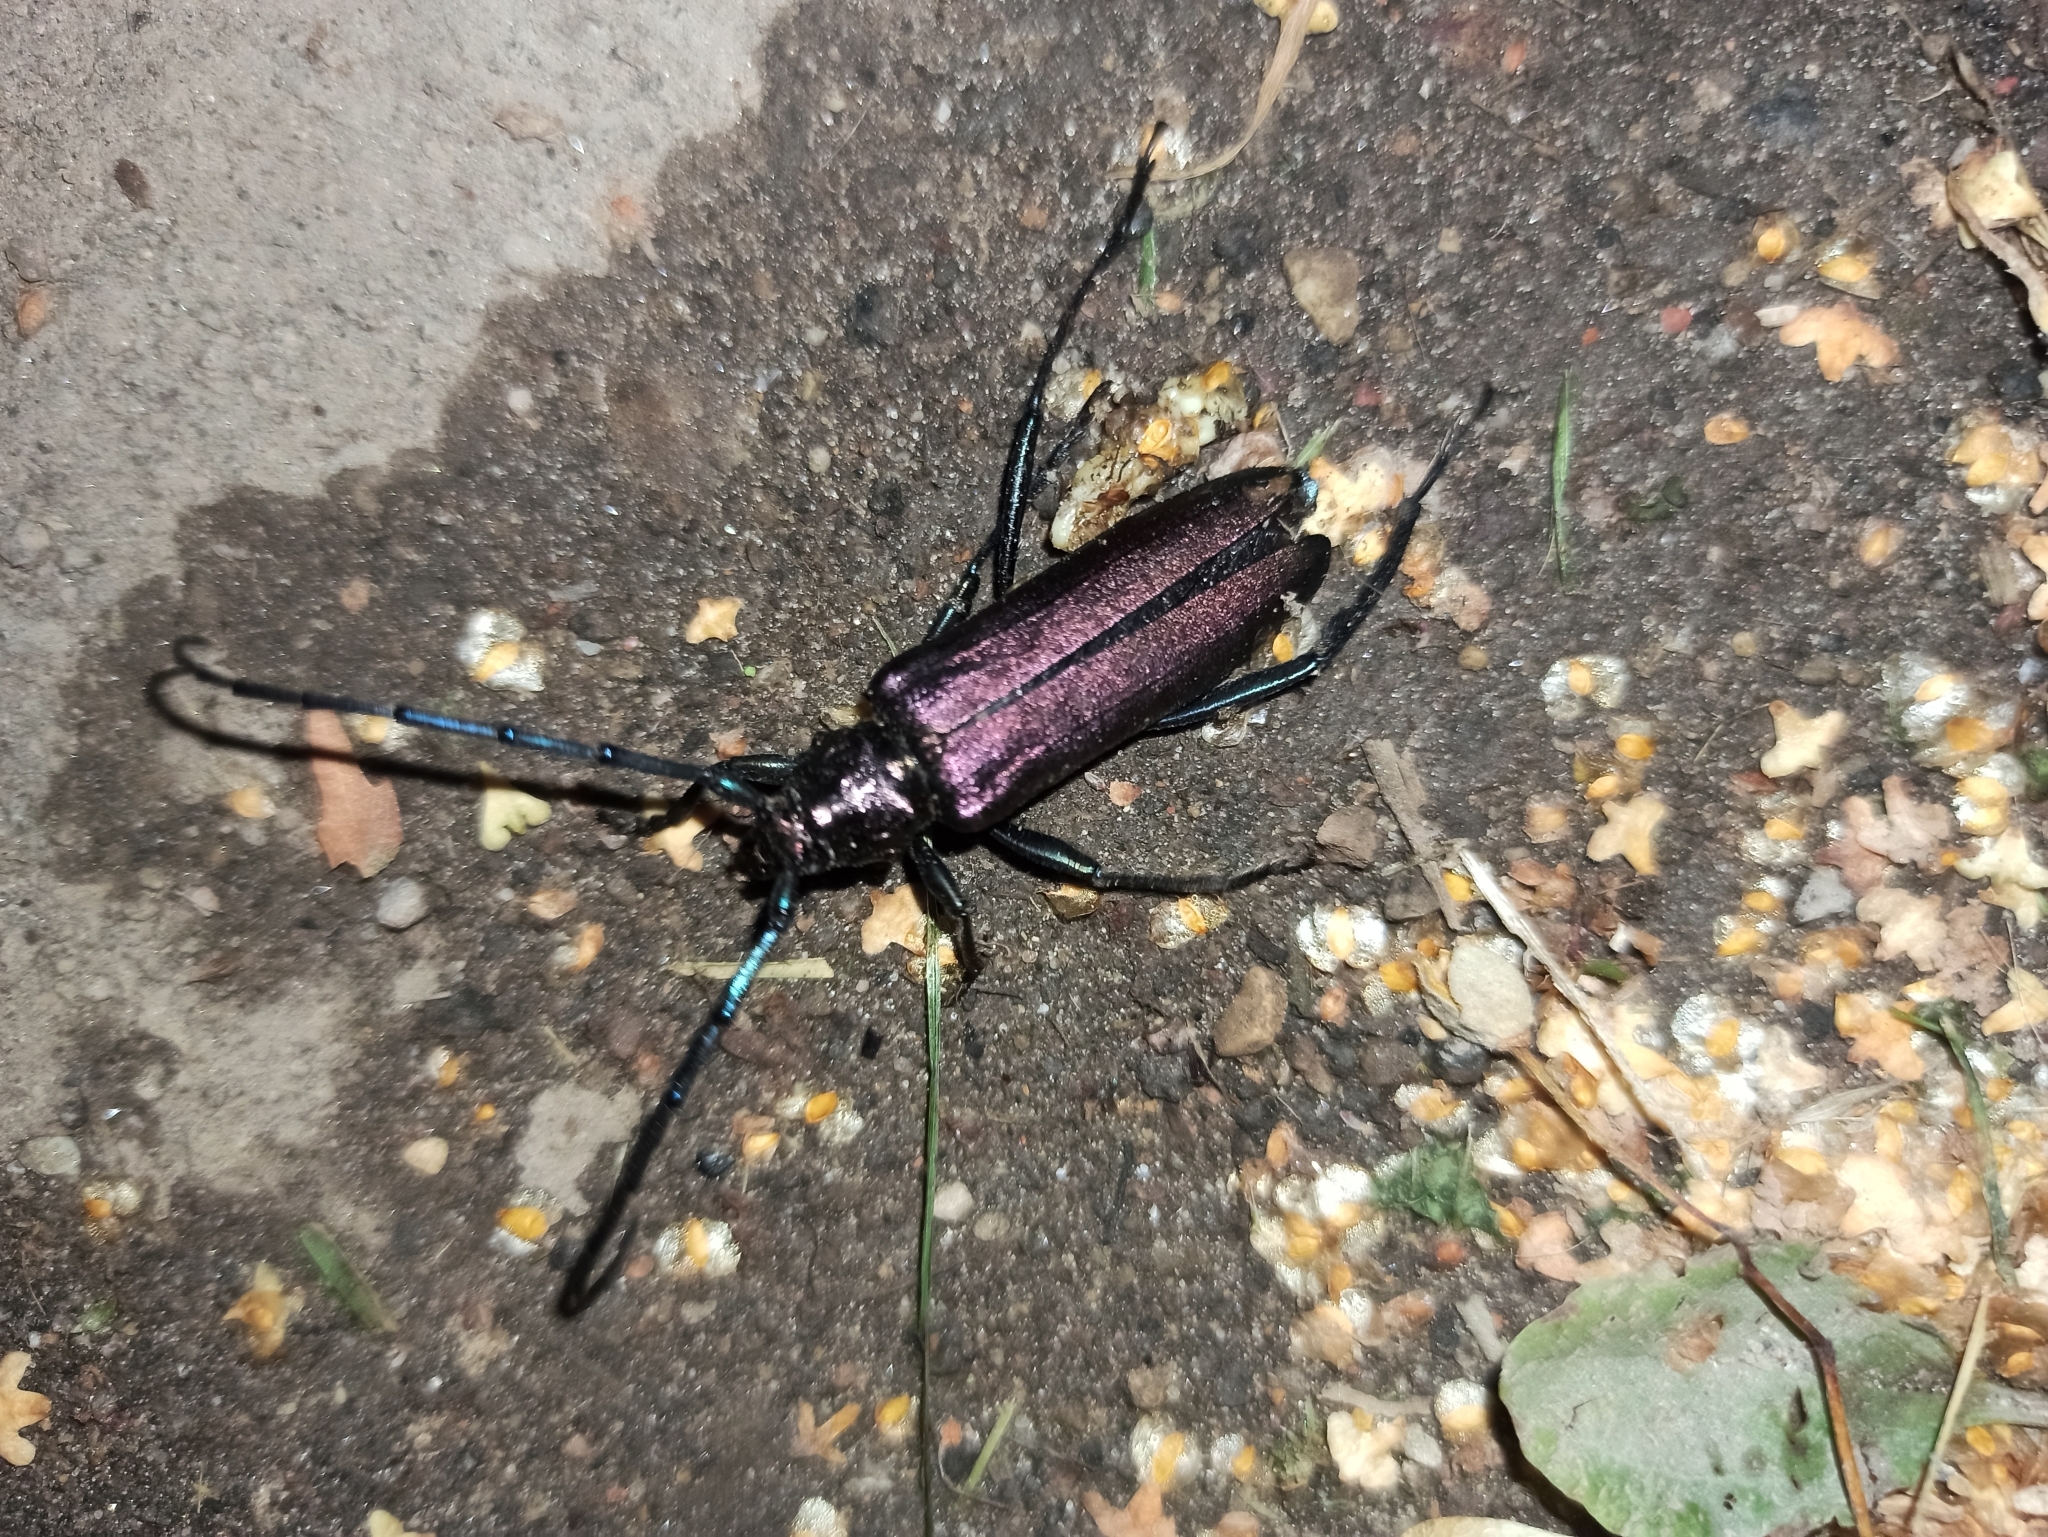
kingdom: Animalia
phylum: Arthropoda
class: Insecta
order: Coleoptera
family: Cerambycidae
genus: Aromia
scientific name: Aromia moschata
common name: Musk beetle
